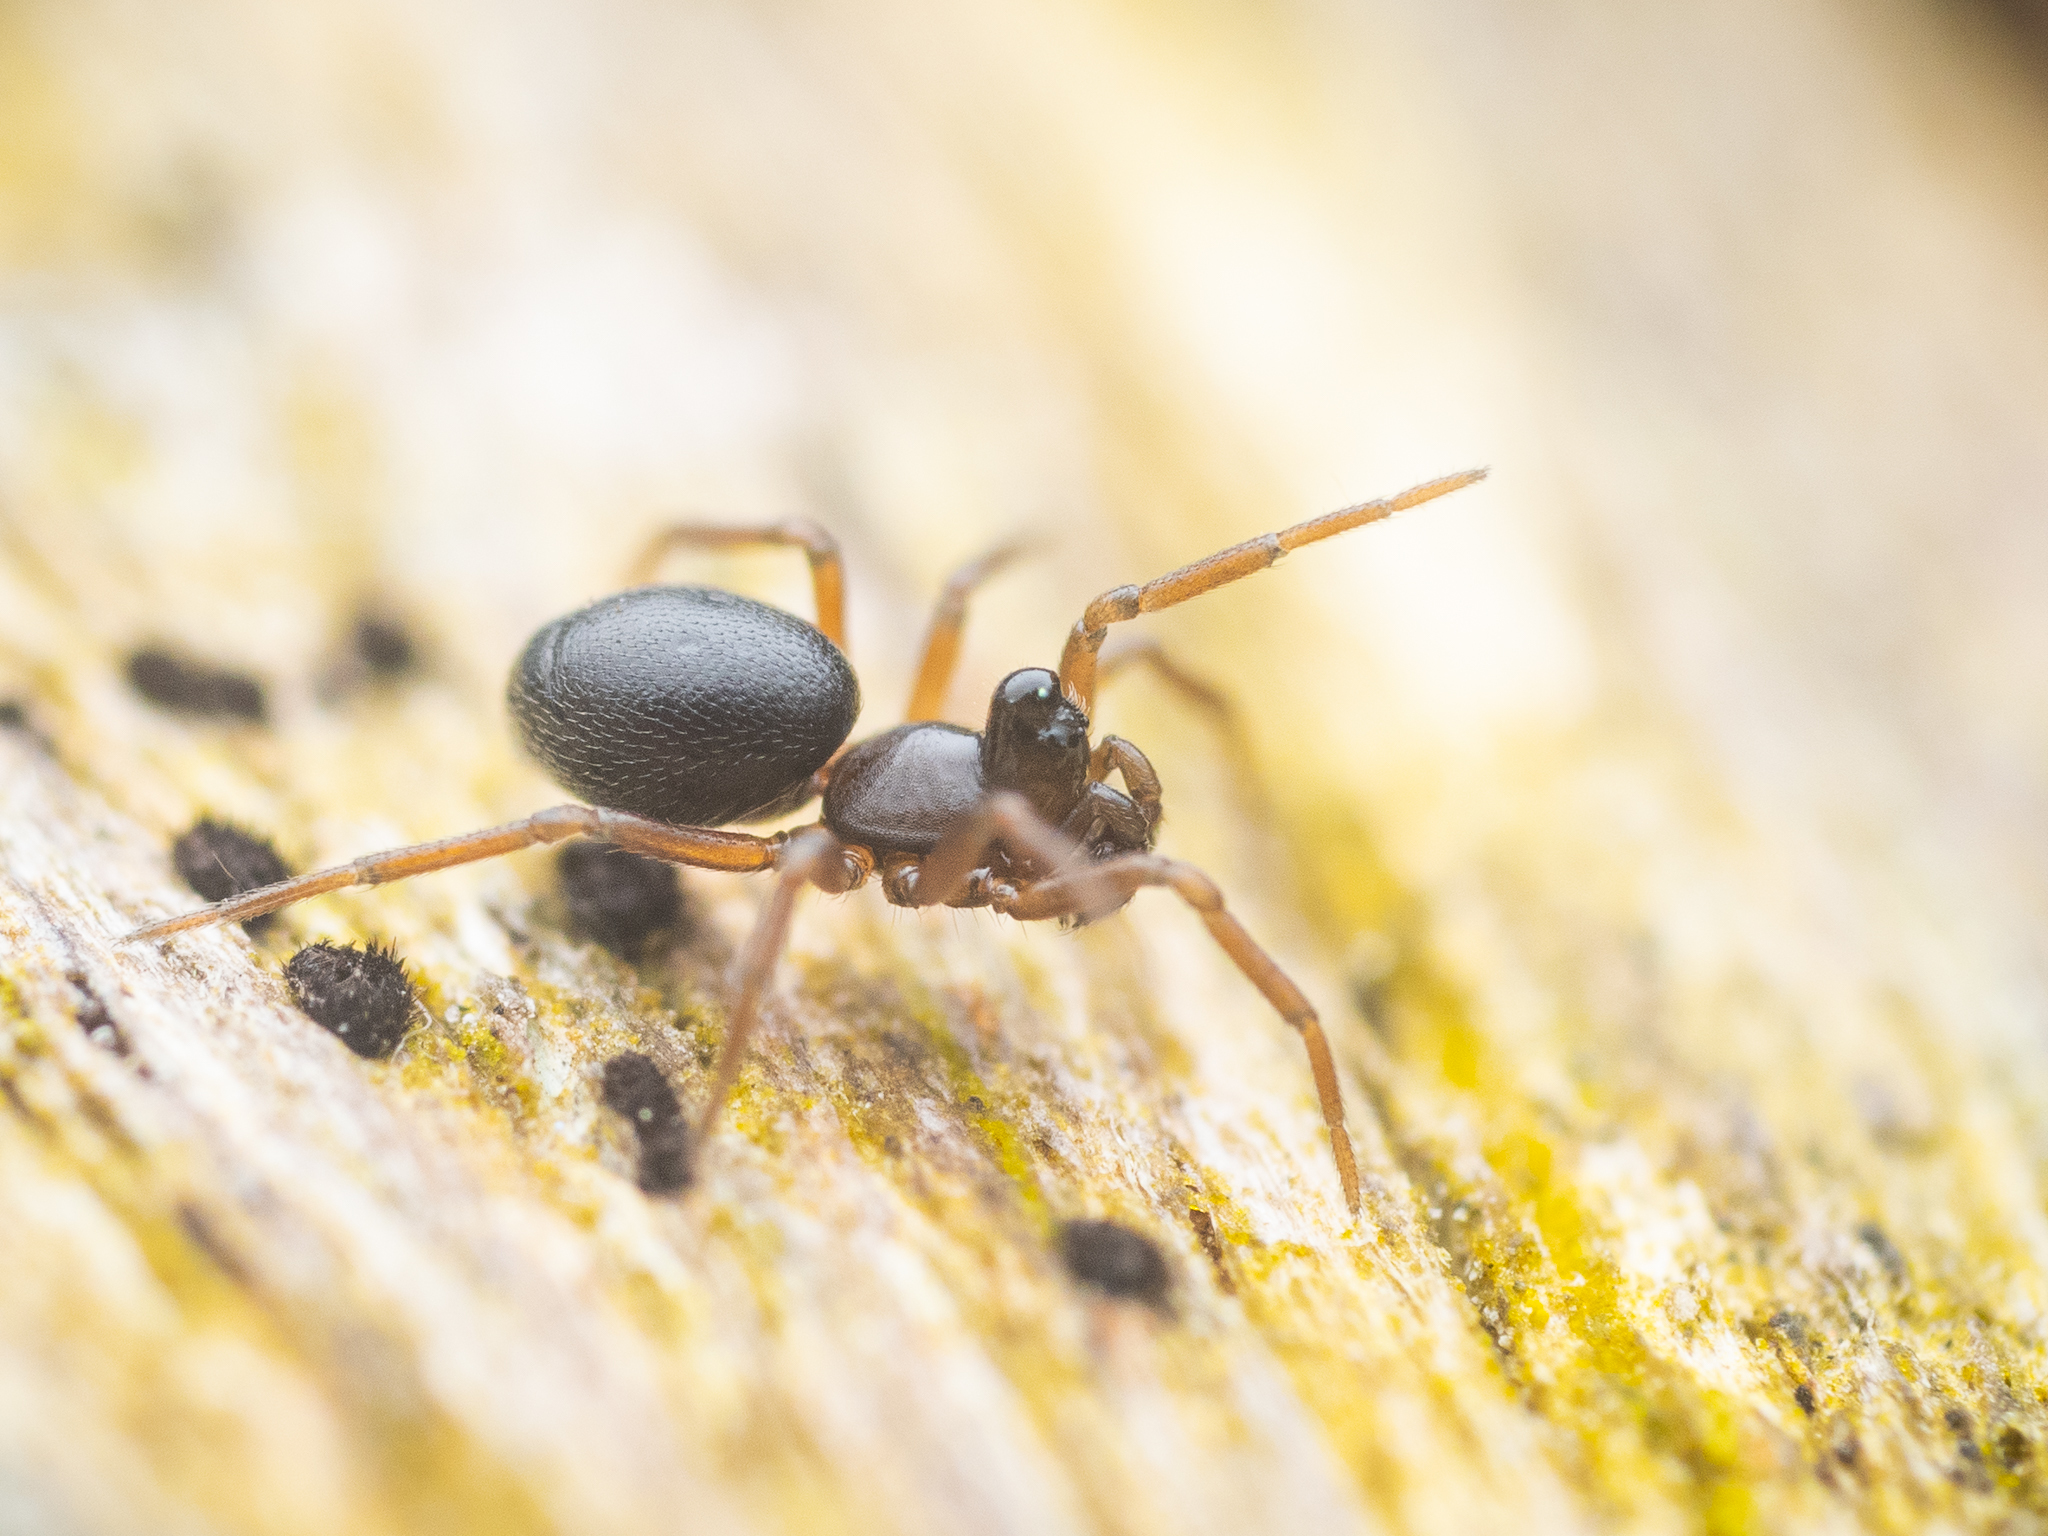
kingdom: Animalia
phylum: Arthropoda
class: Arachnida
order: Araneae
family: Linyphiidae
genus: Trichopterna
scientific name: Trichopterna cito
